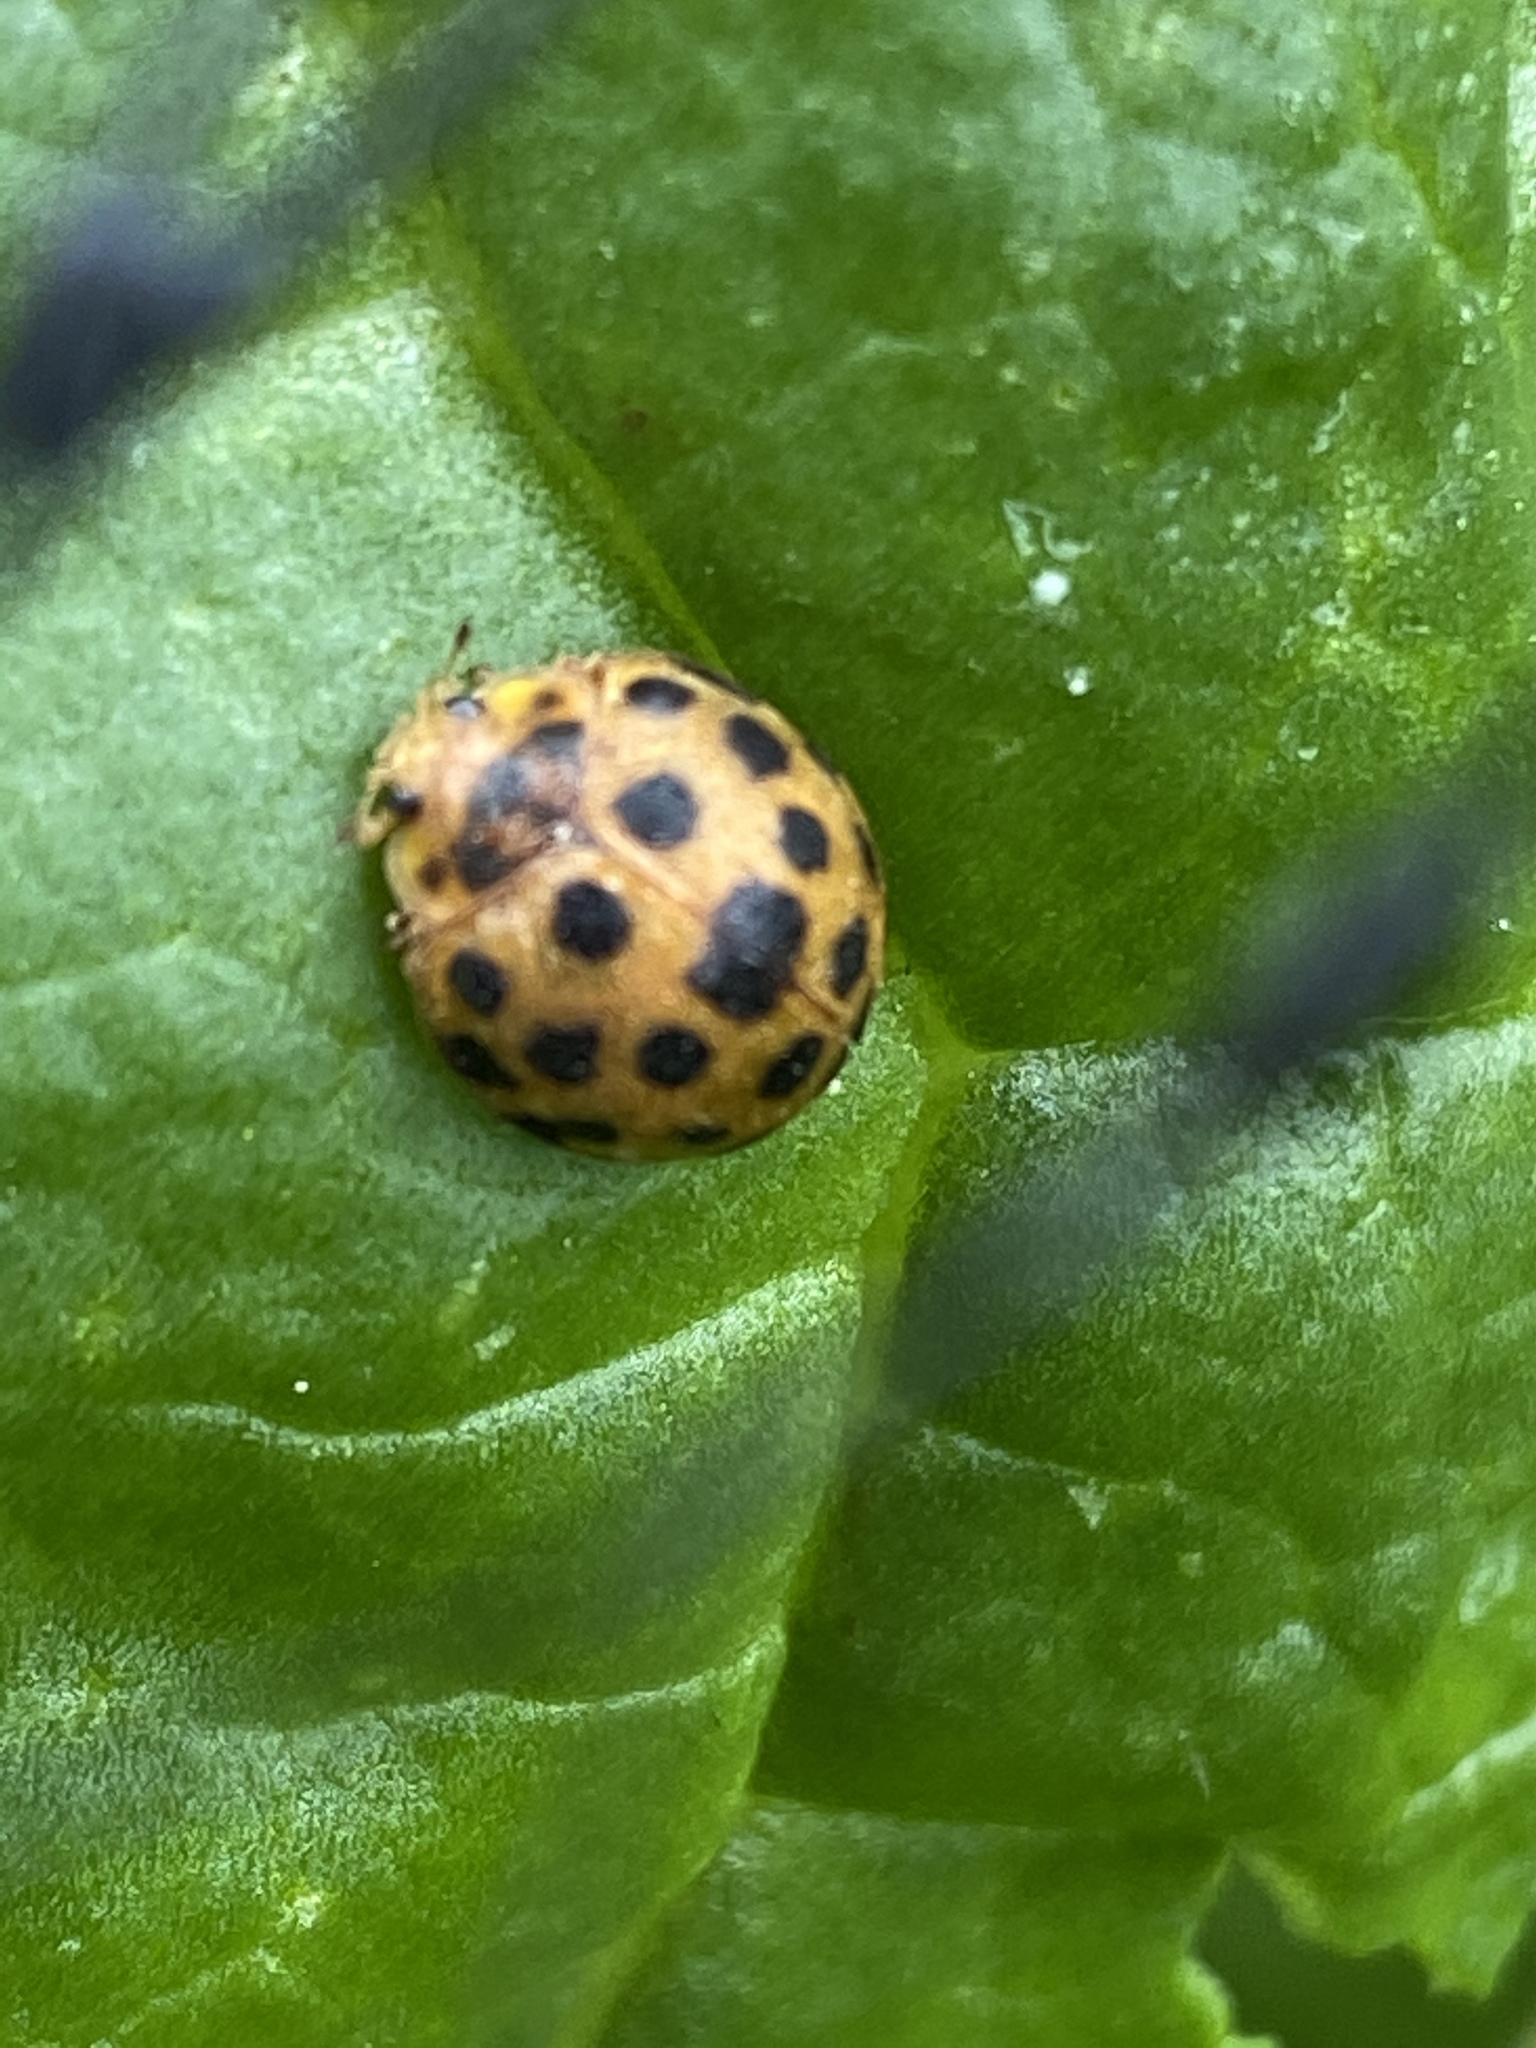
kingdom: Animalia
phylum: Arthropoda
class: Insecta
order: Coleoptera
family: Coccinellidae
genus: Henosepilachna
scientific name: Henosepilachna vigintioctopunctata
